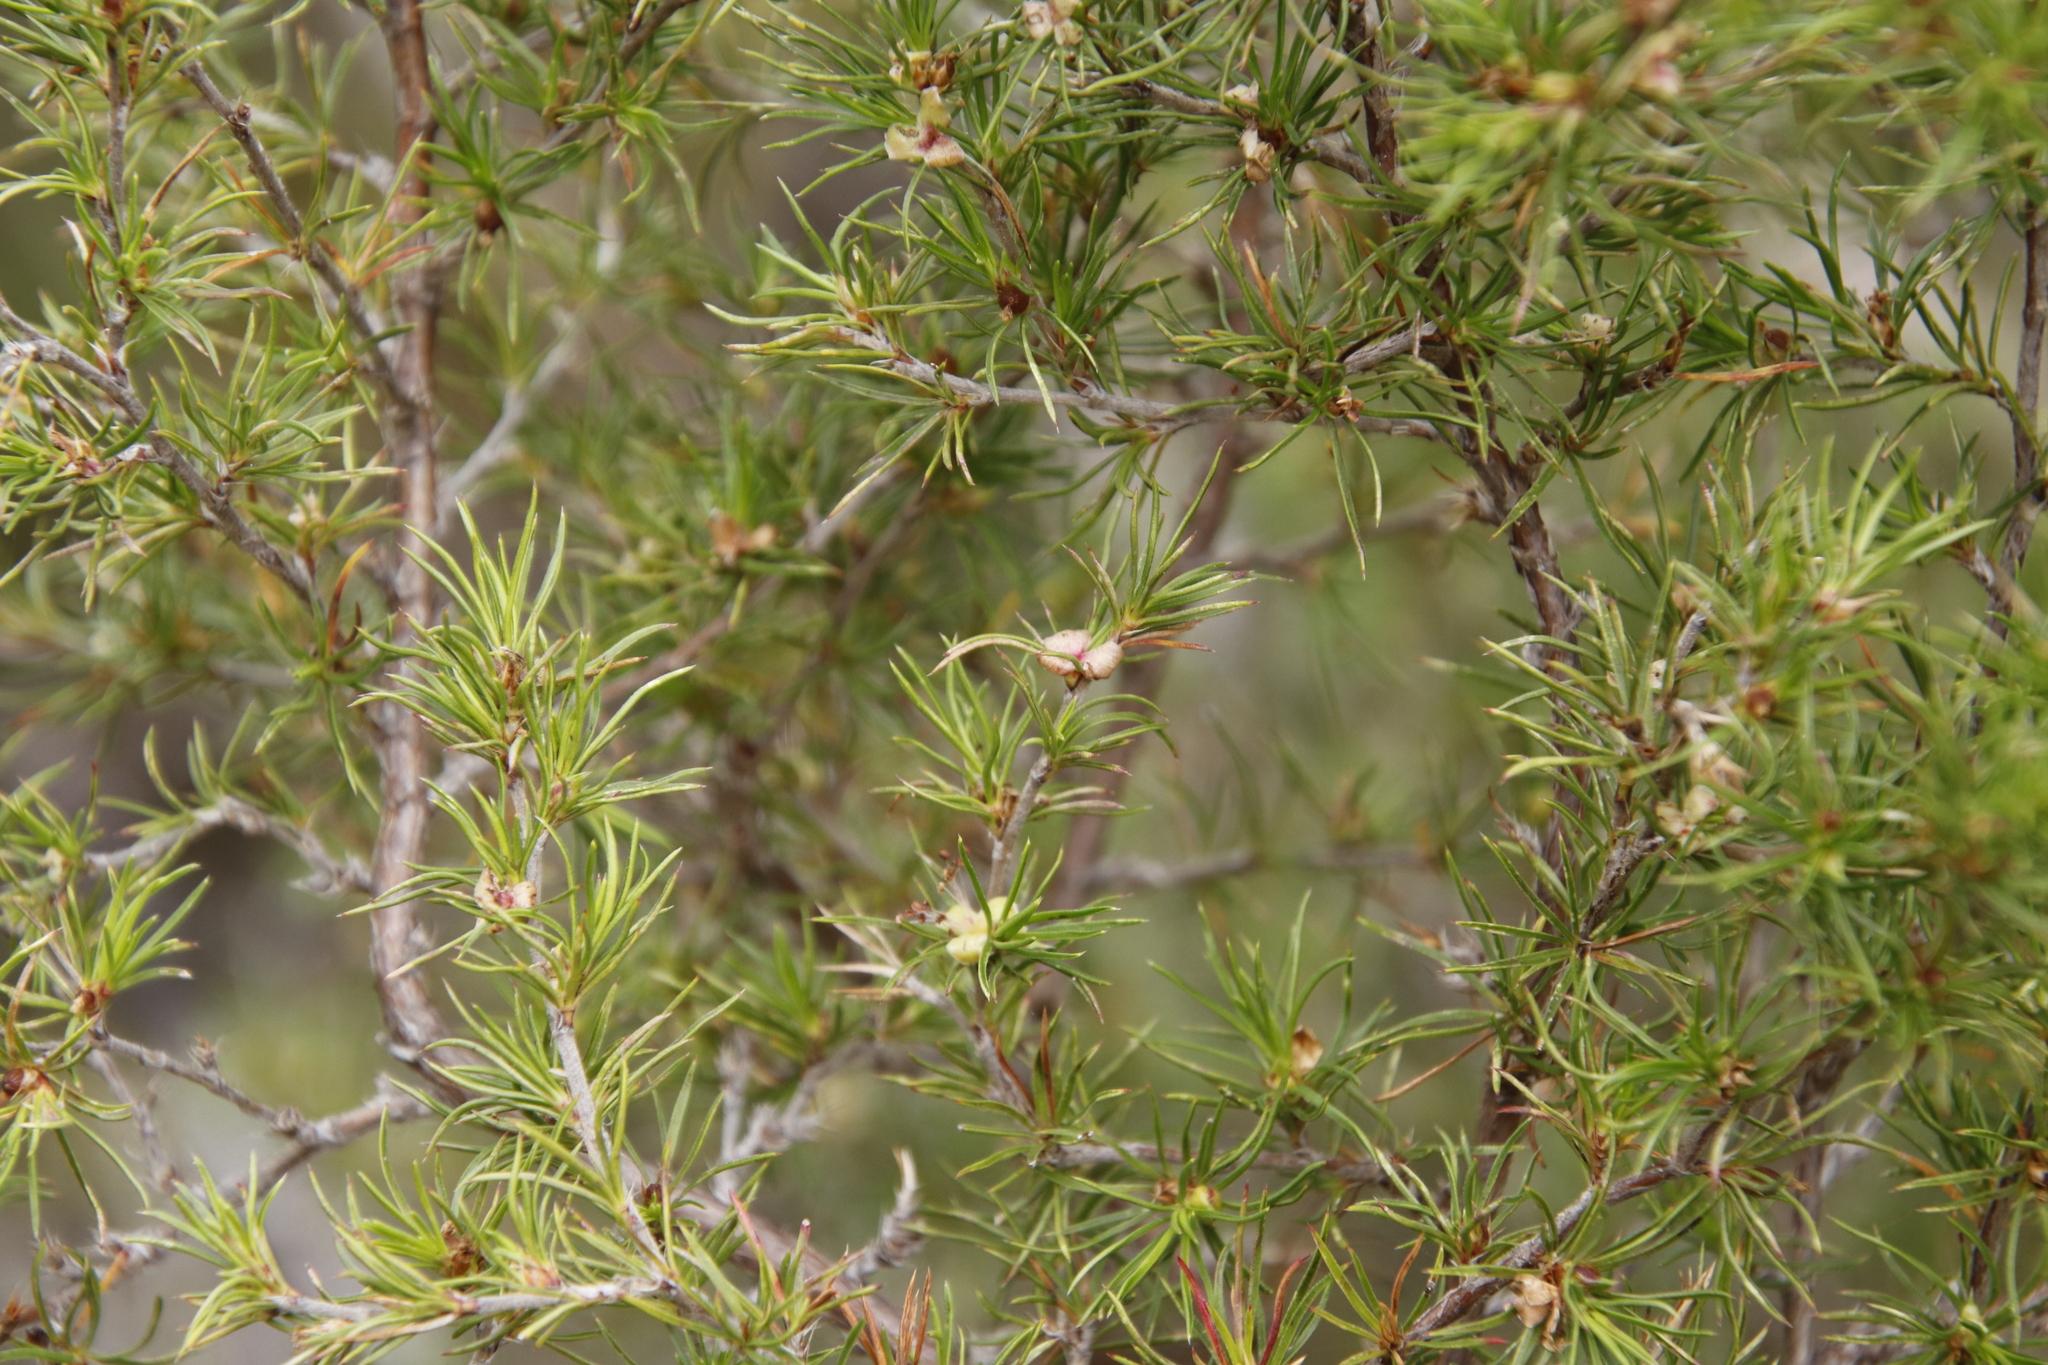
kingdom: Plantae
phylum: Tracheophyta
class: Magnoliopsida
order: Rosales
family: Rosaceae
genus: Cliffortia
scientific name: Cliffortia atrata
